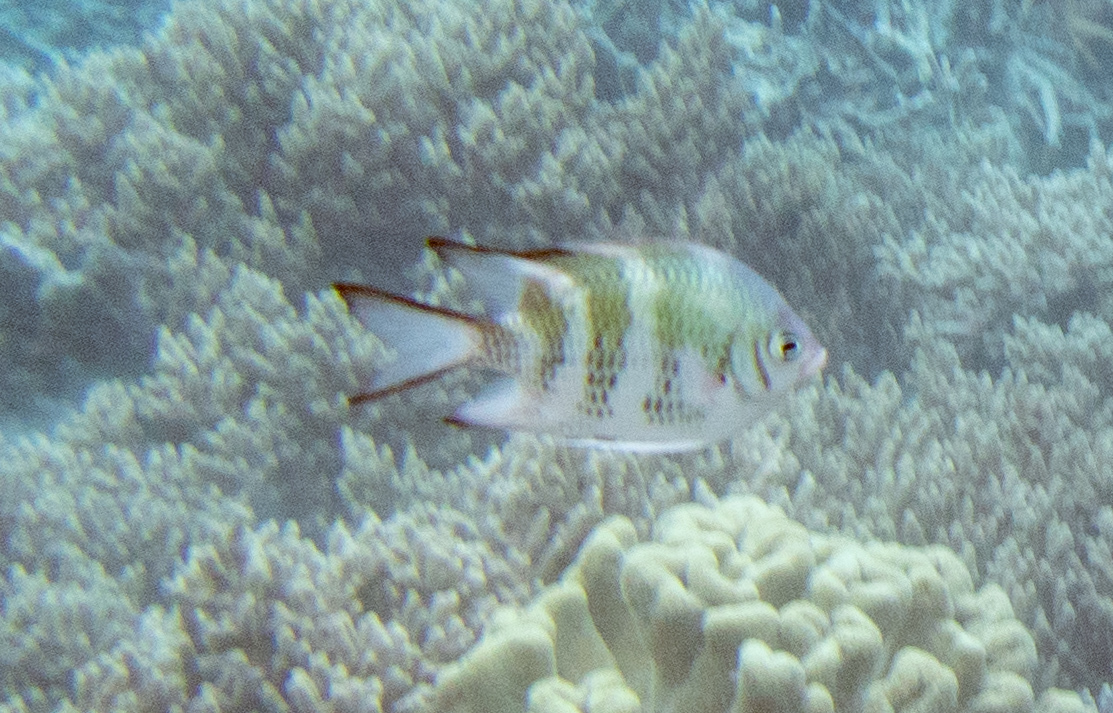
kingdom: Animalia
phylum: Chordata
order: Perciformes
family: Pomacentridae
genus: Amblyglyphidodon
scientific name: Amblyglyphidodon curacao
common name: Staghorn damsel
